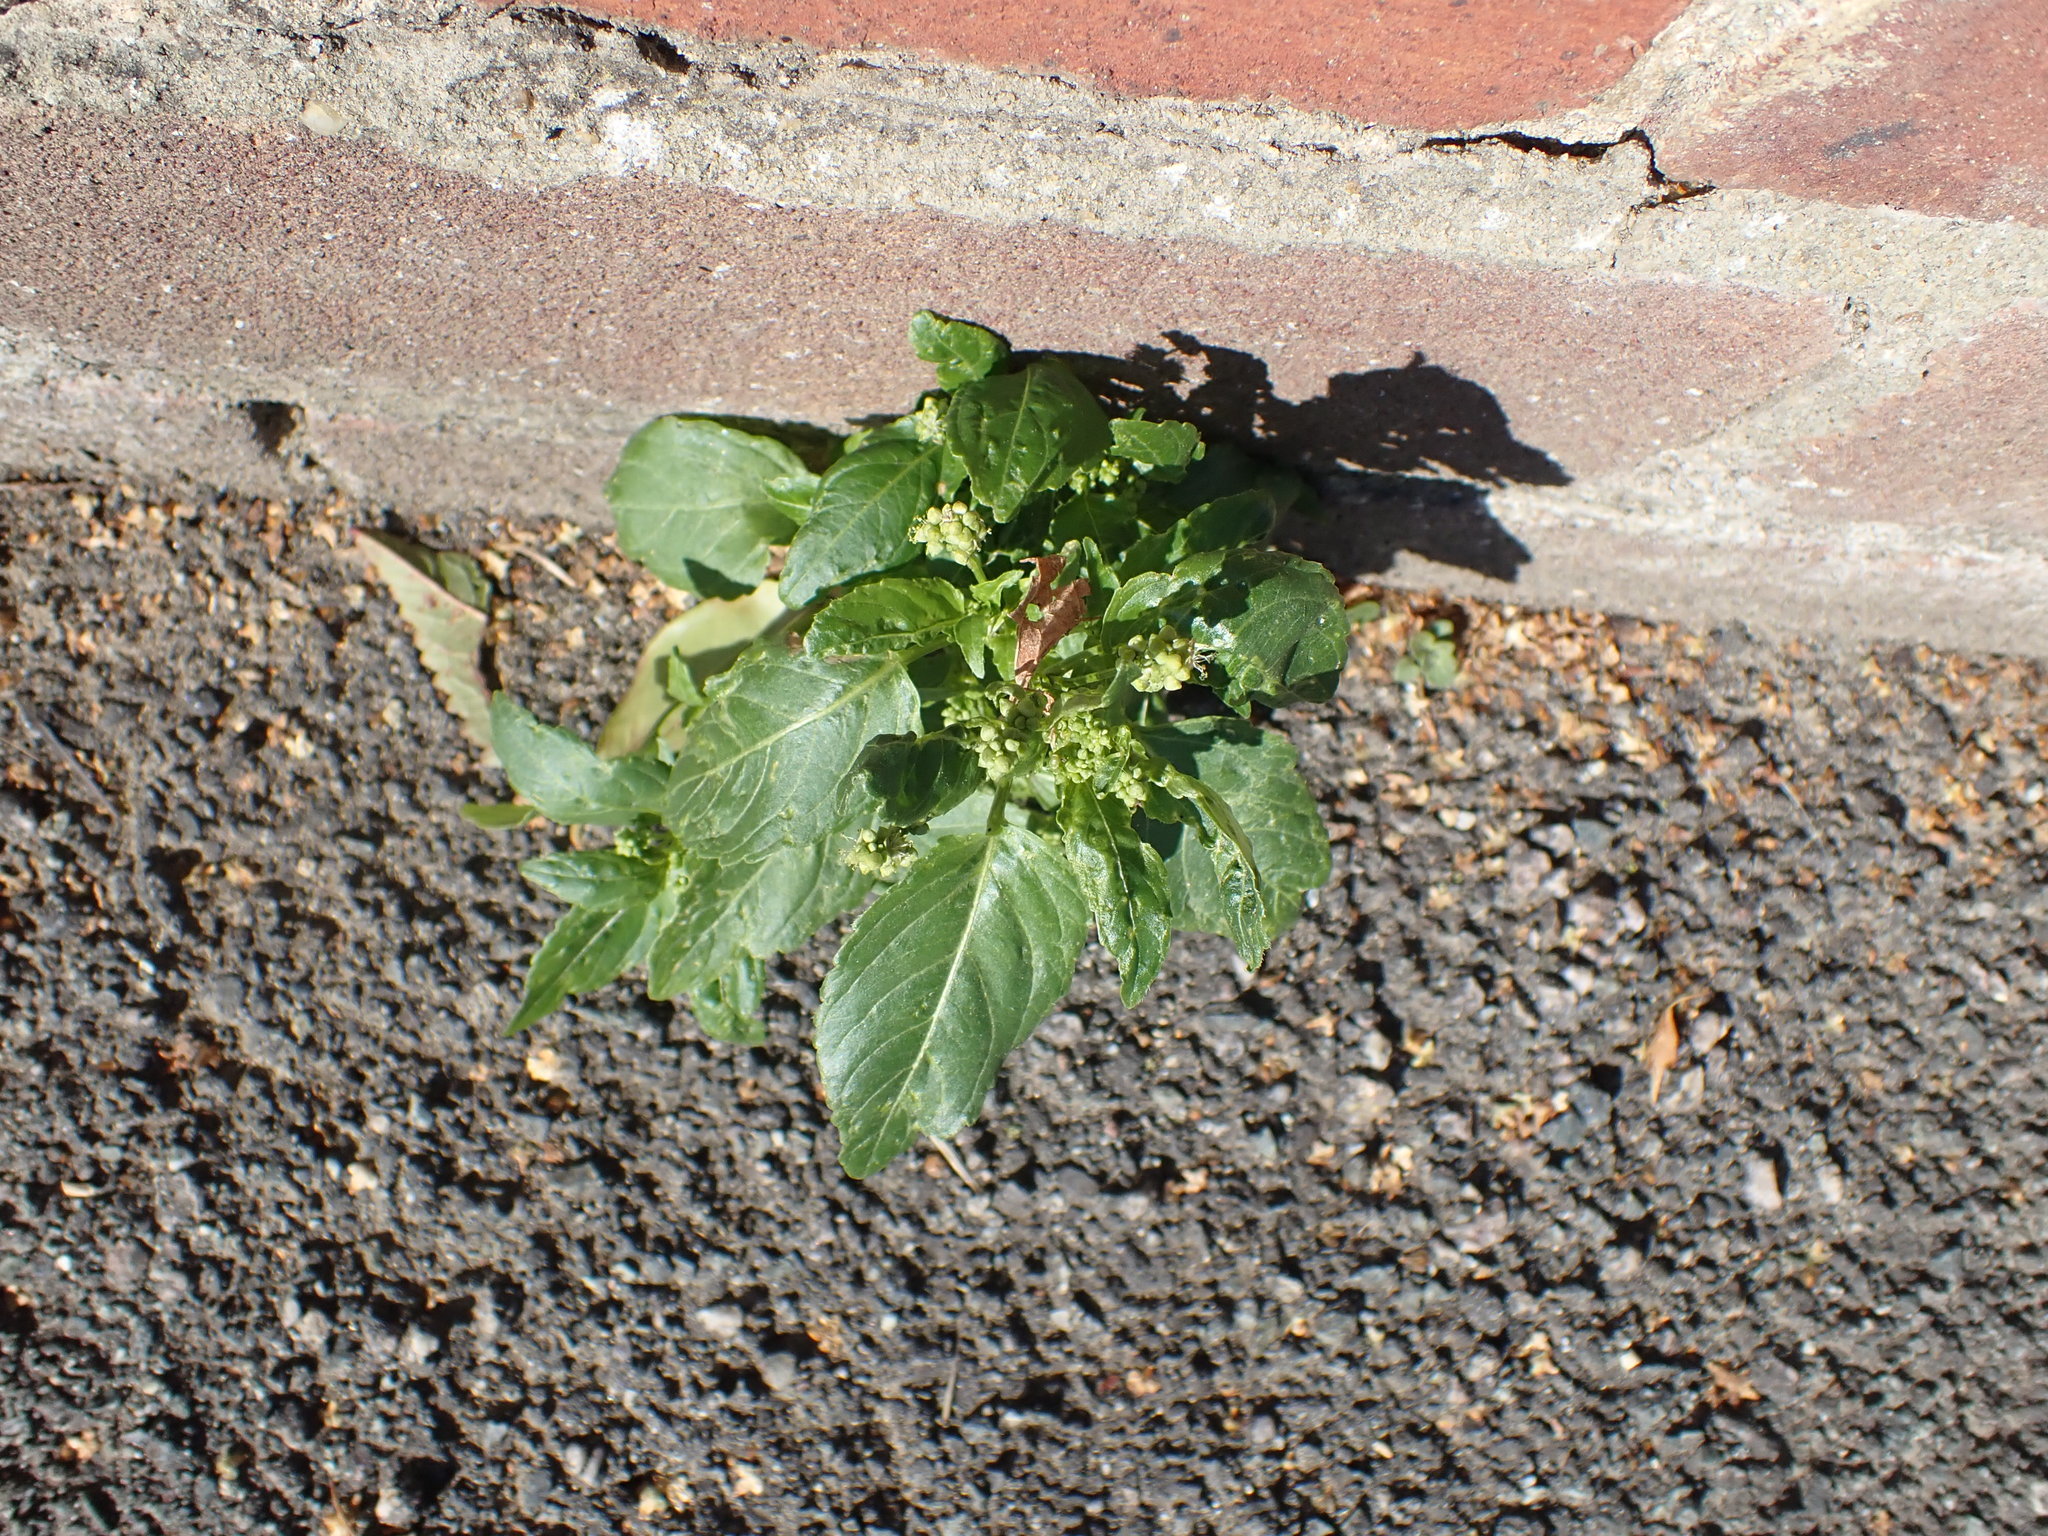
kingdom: Plantae
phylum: Tracheophyta
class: Magnoliopsida
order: Malpighiales
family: Euphorbiaceae
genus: Mercurialis
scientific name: Mercurialis annua
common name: Annual mercury
